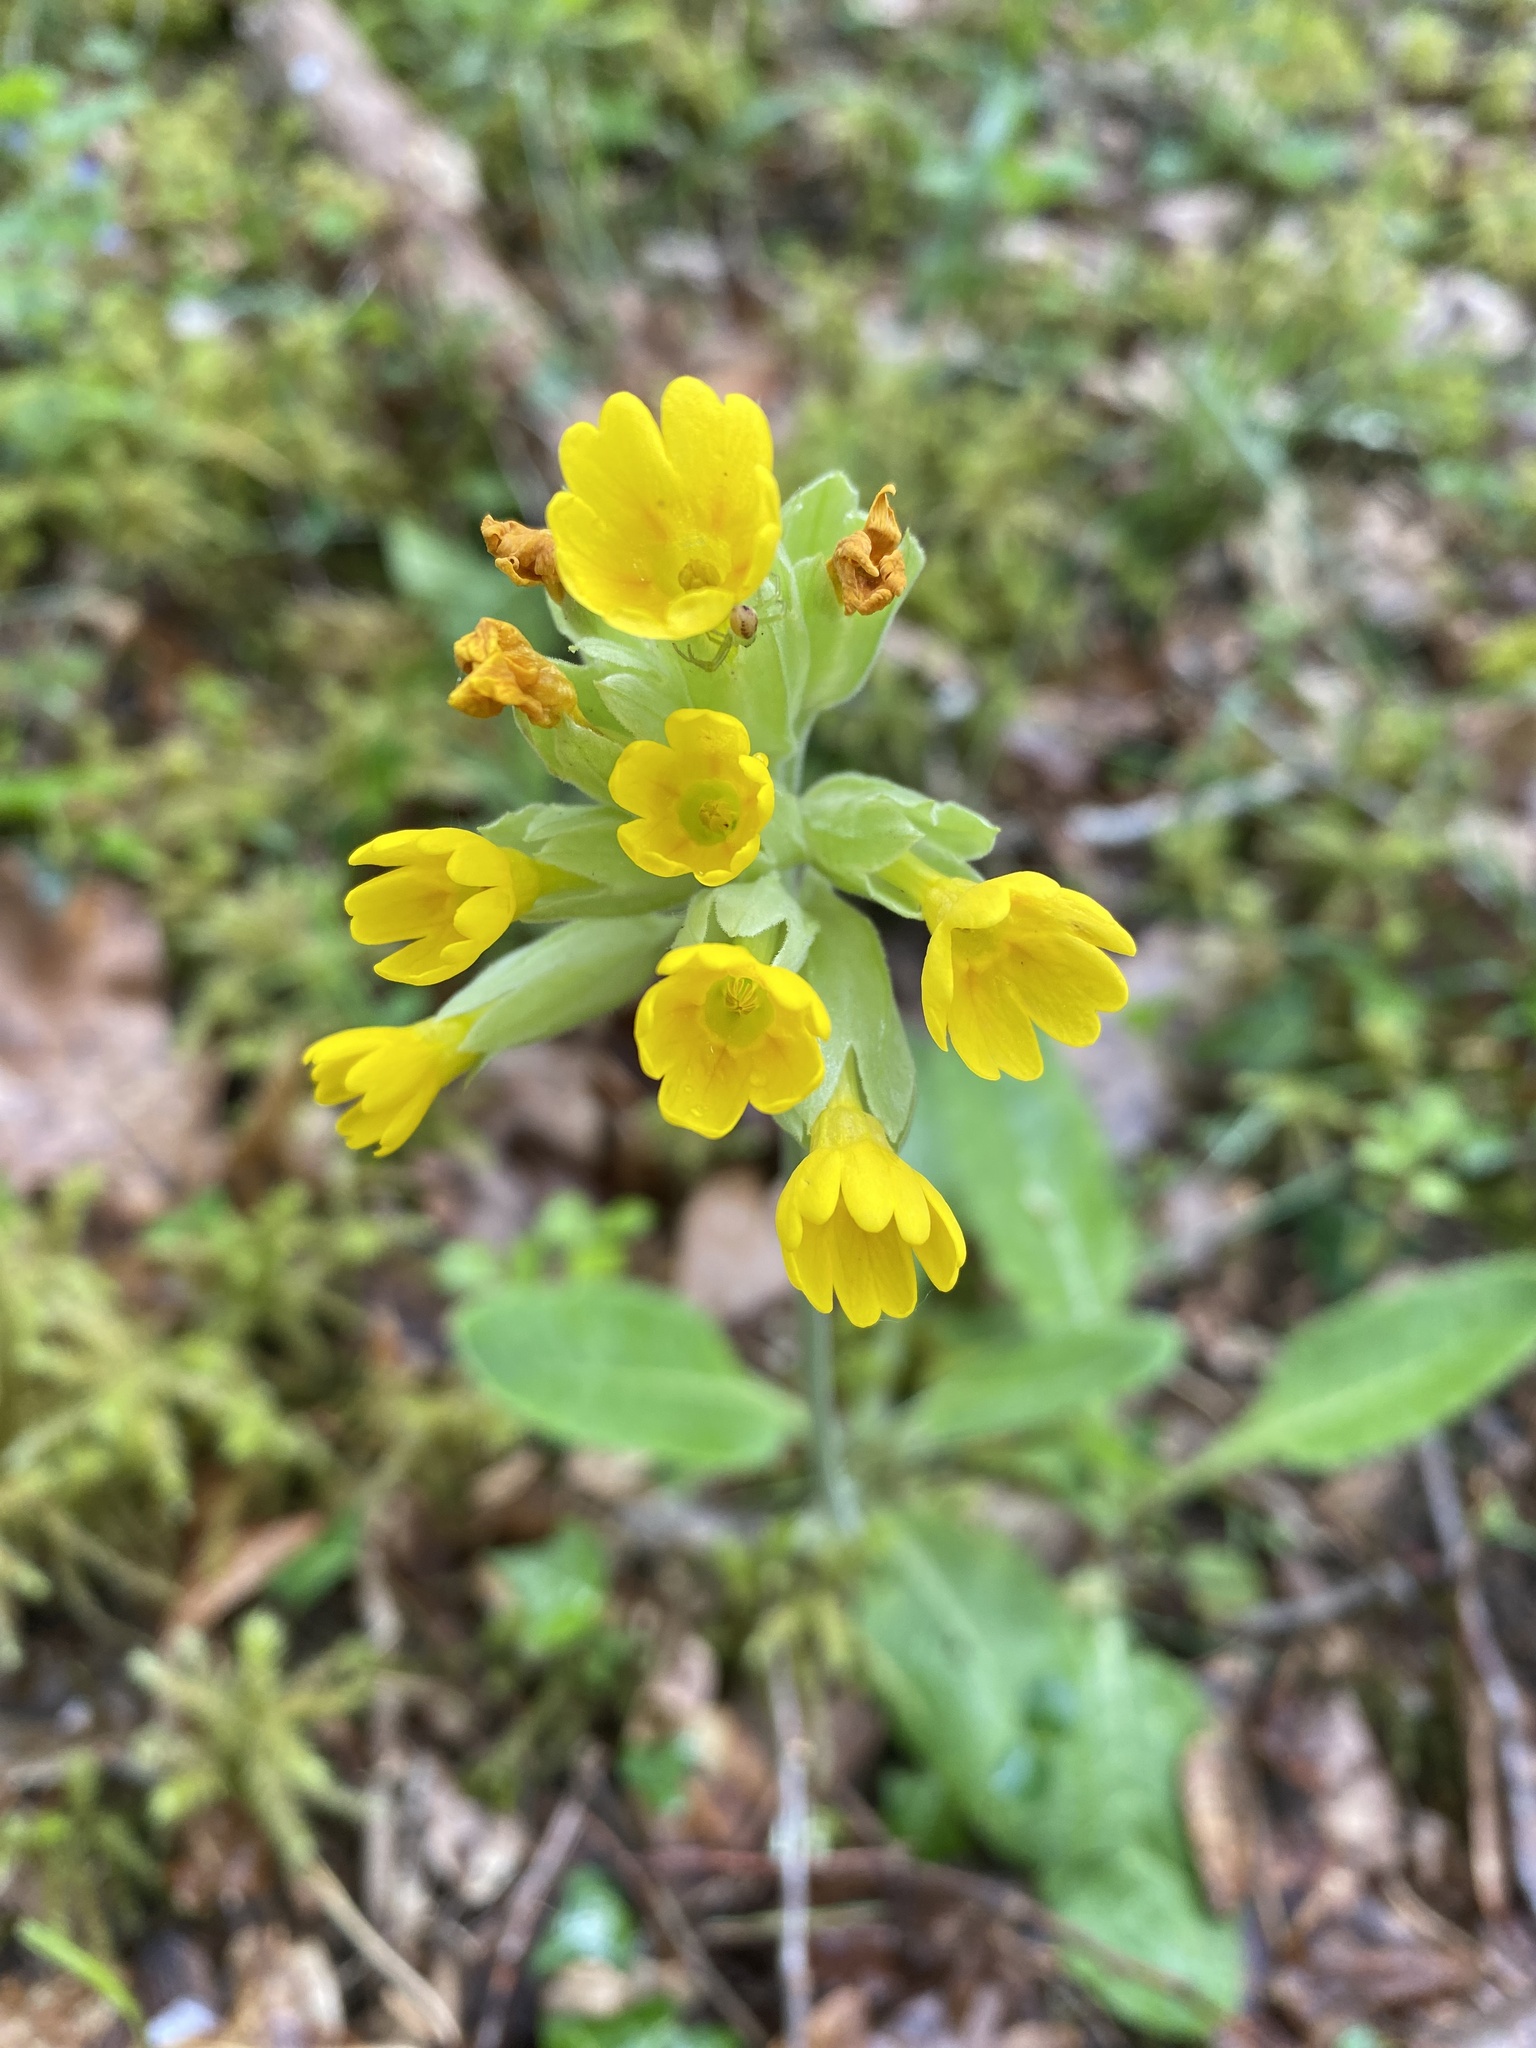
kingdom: Plantae
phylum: Tracheophyta
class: Magnoliopsida
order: Ericales
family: Primulaceae
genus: Primula
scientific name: Primula veris
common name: Cowslip
